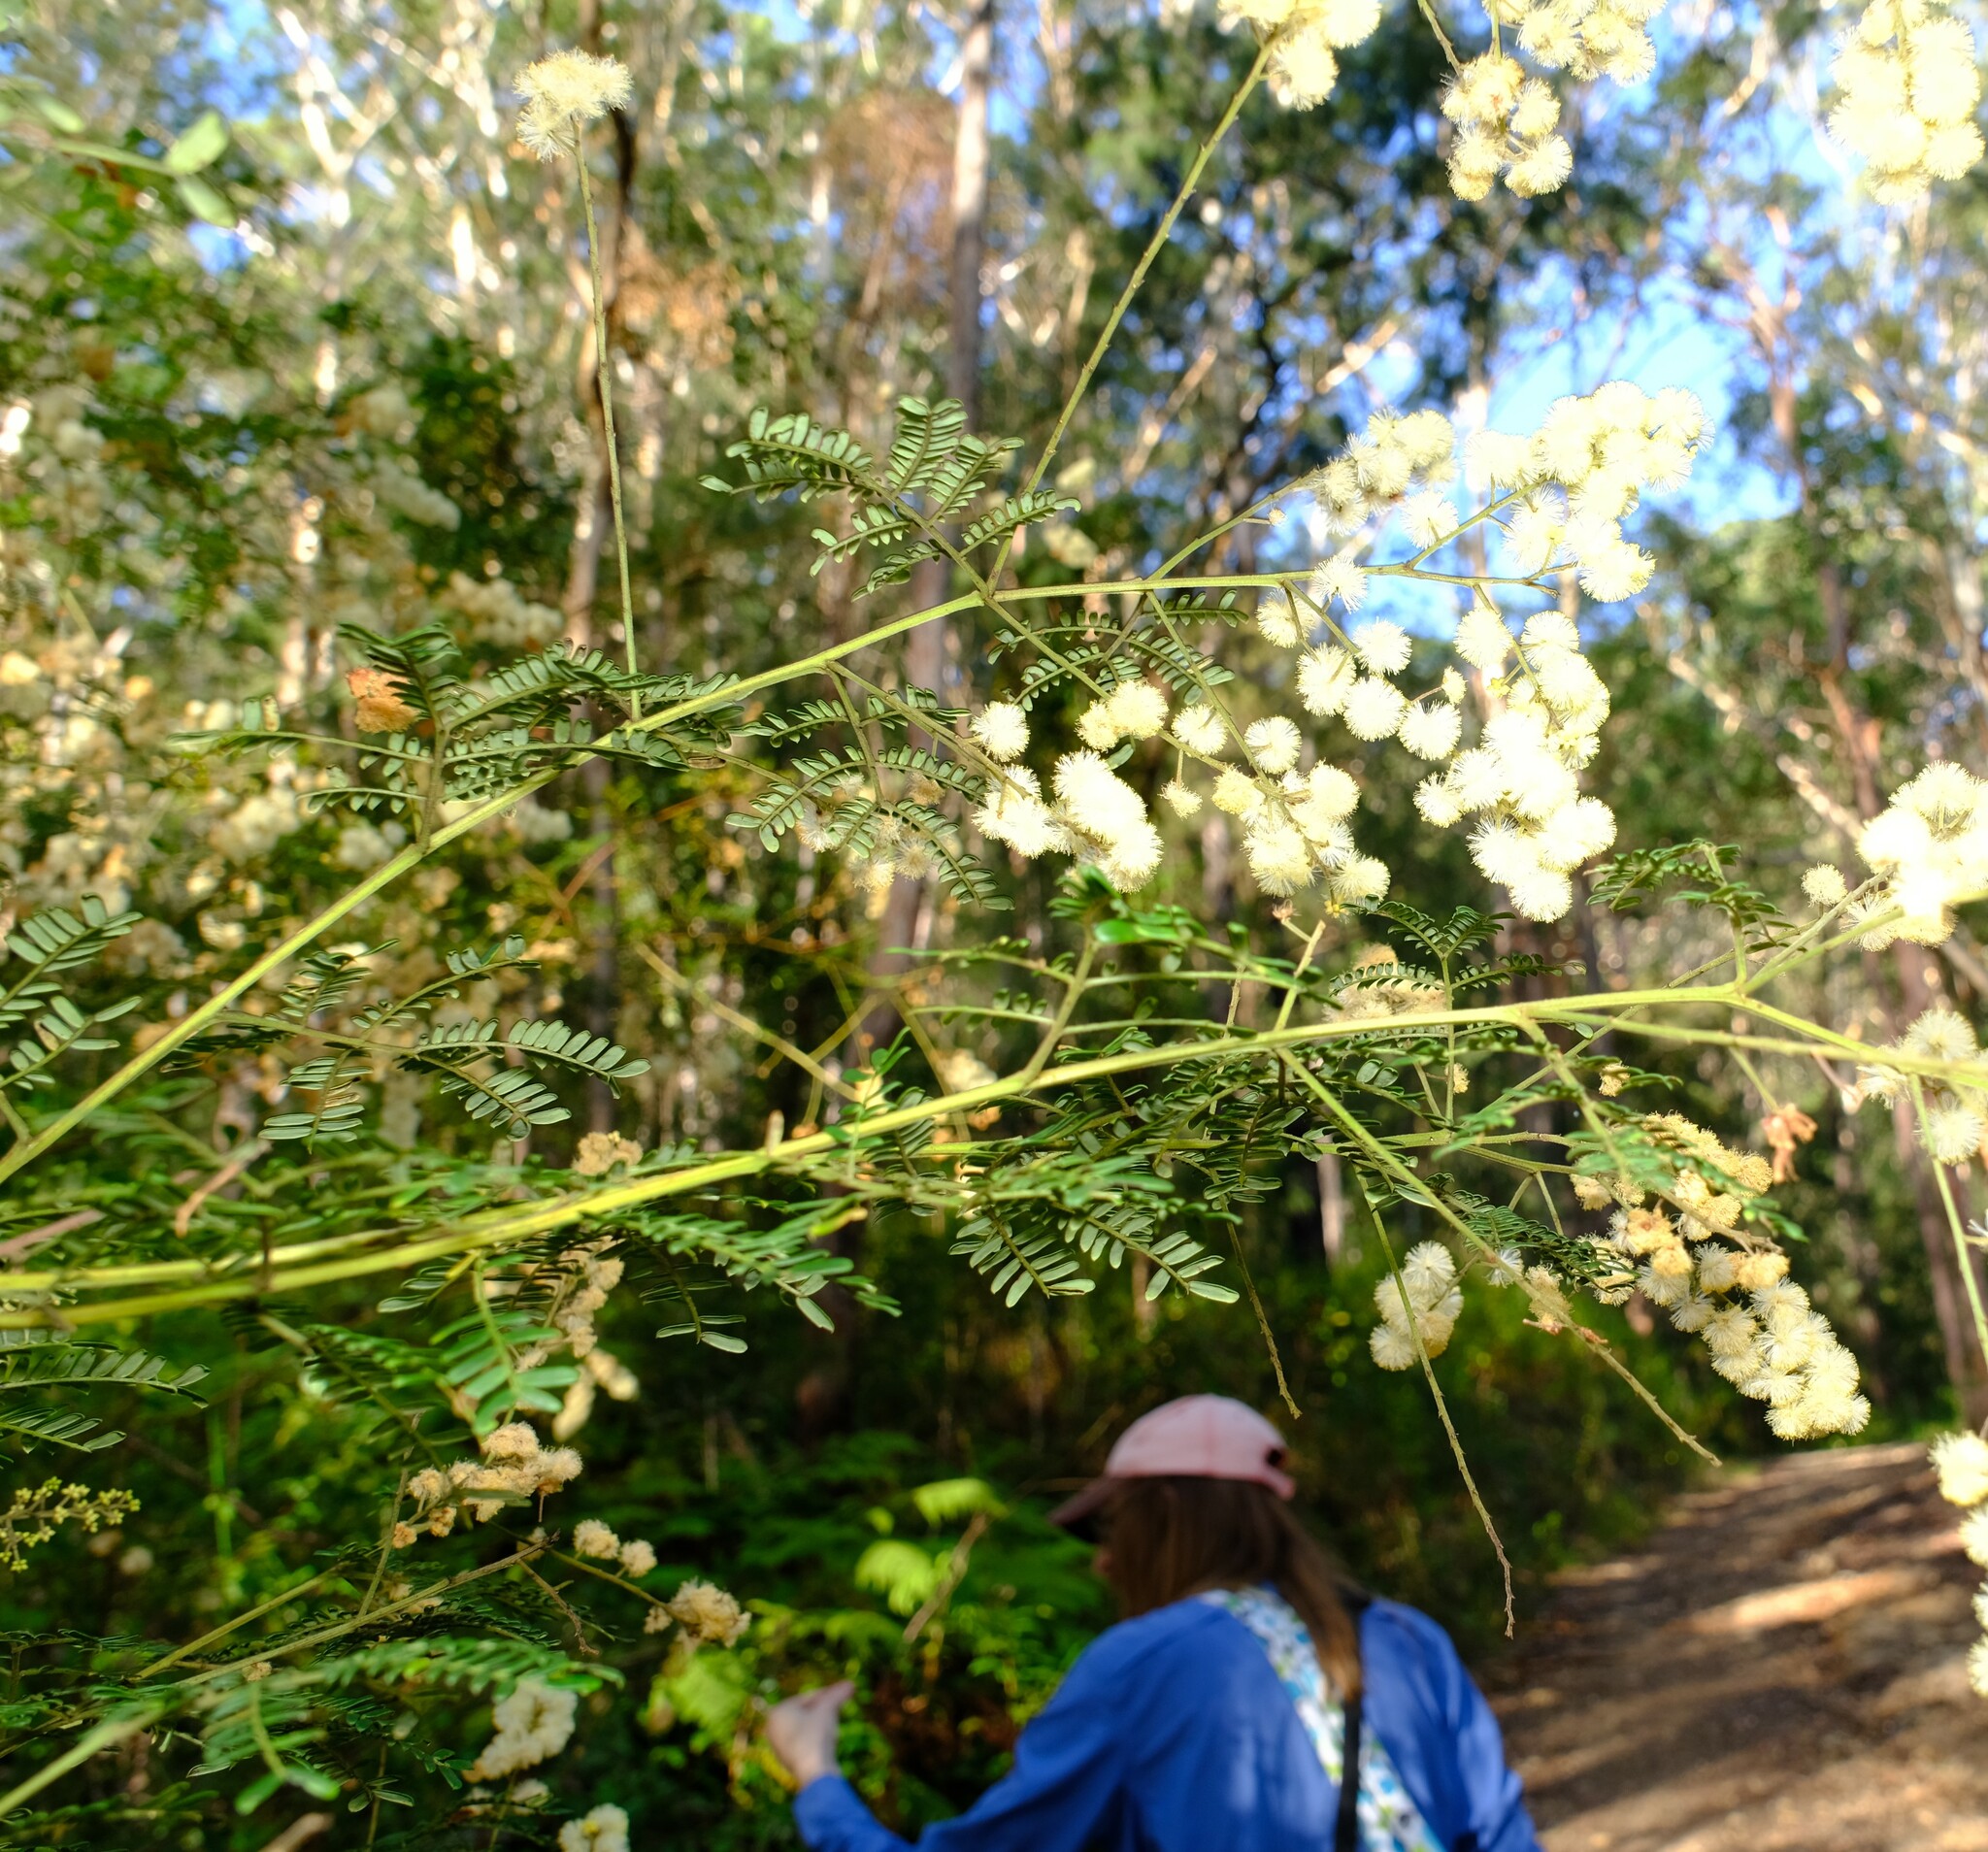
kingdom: Plantae
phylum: Tracheophyta
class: Magnoliopsida
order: Fabales
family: Fabaceae
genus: Acacia
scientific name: Acacia terminalis
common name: Cedar wattle
